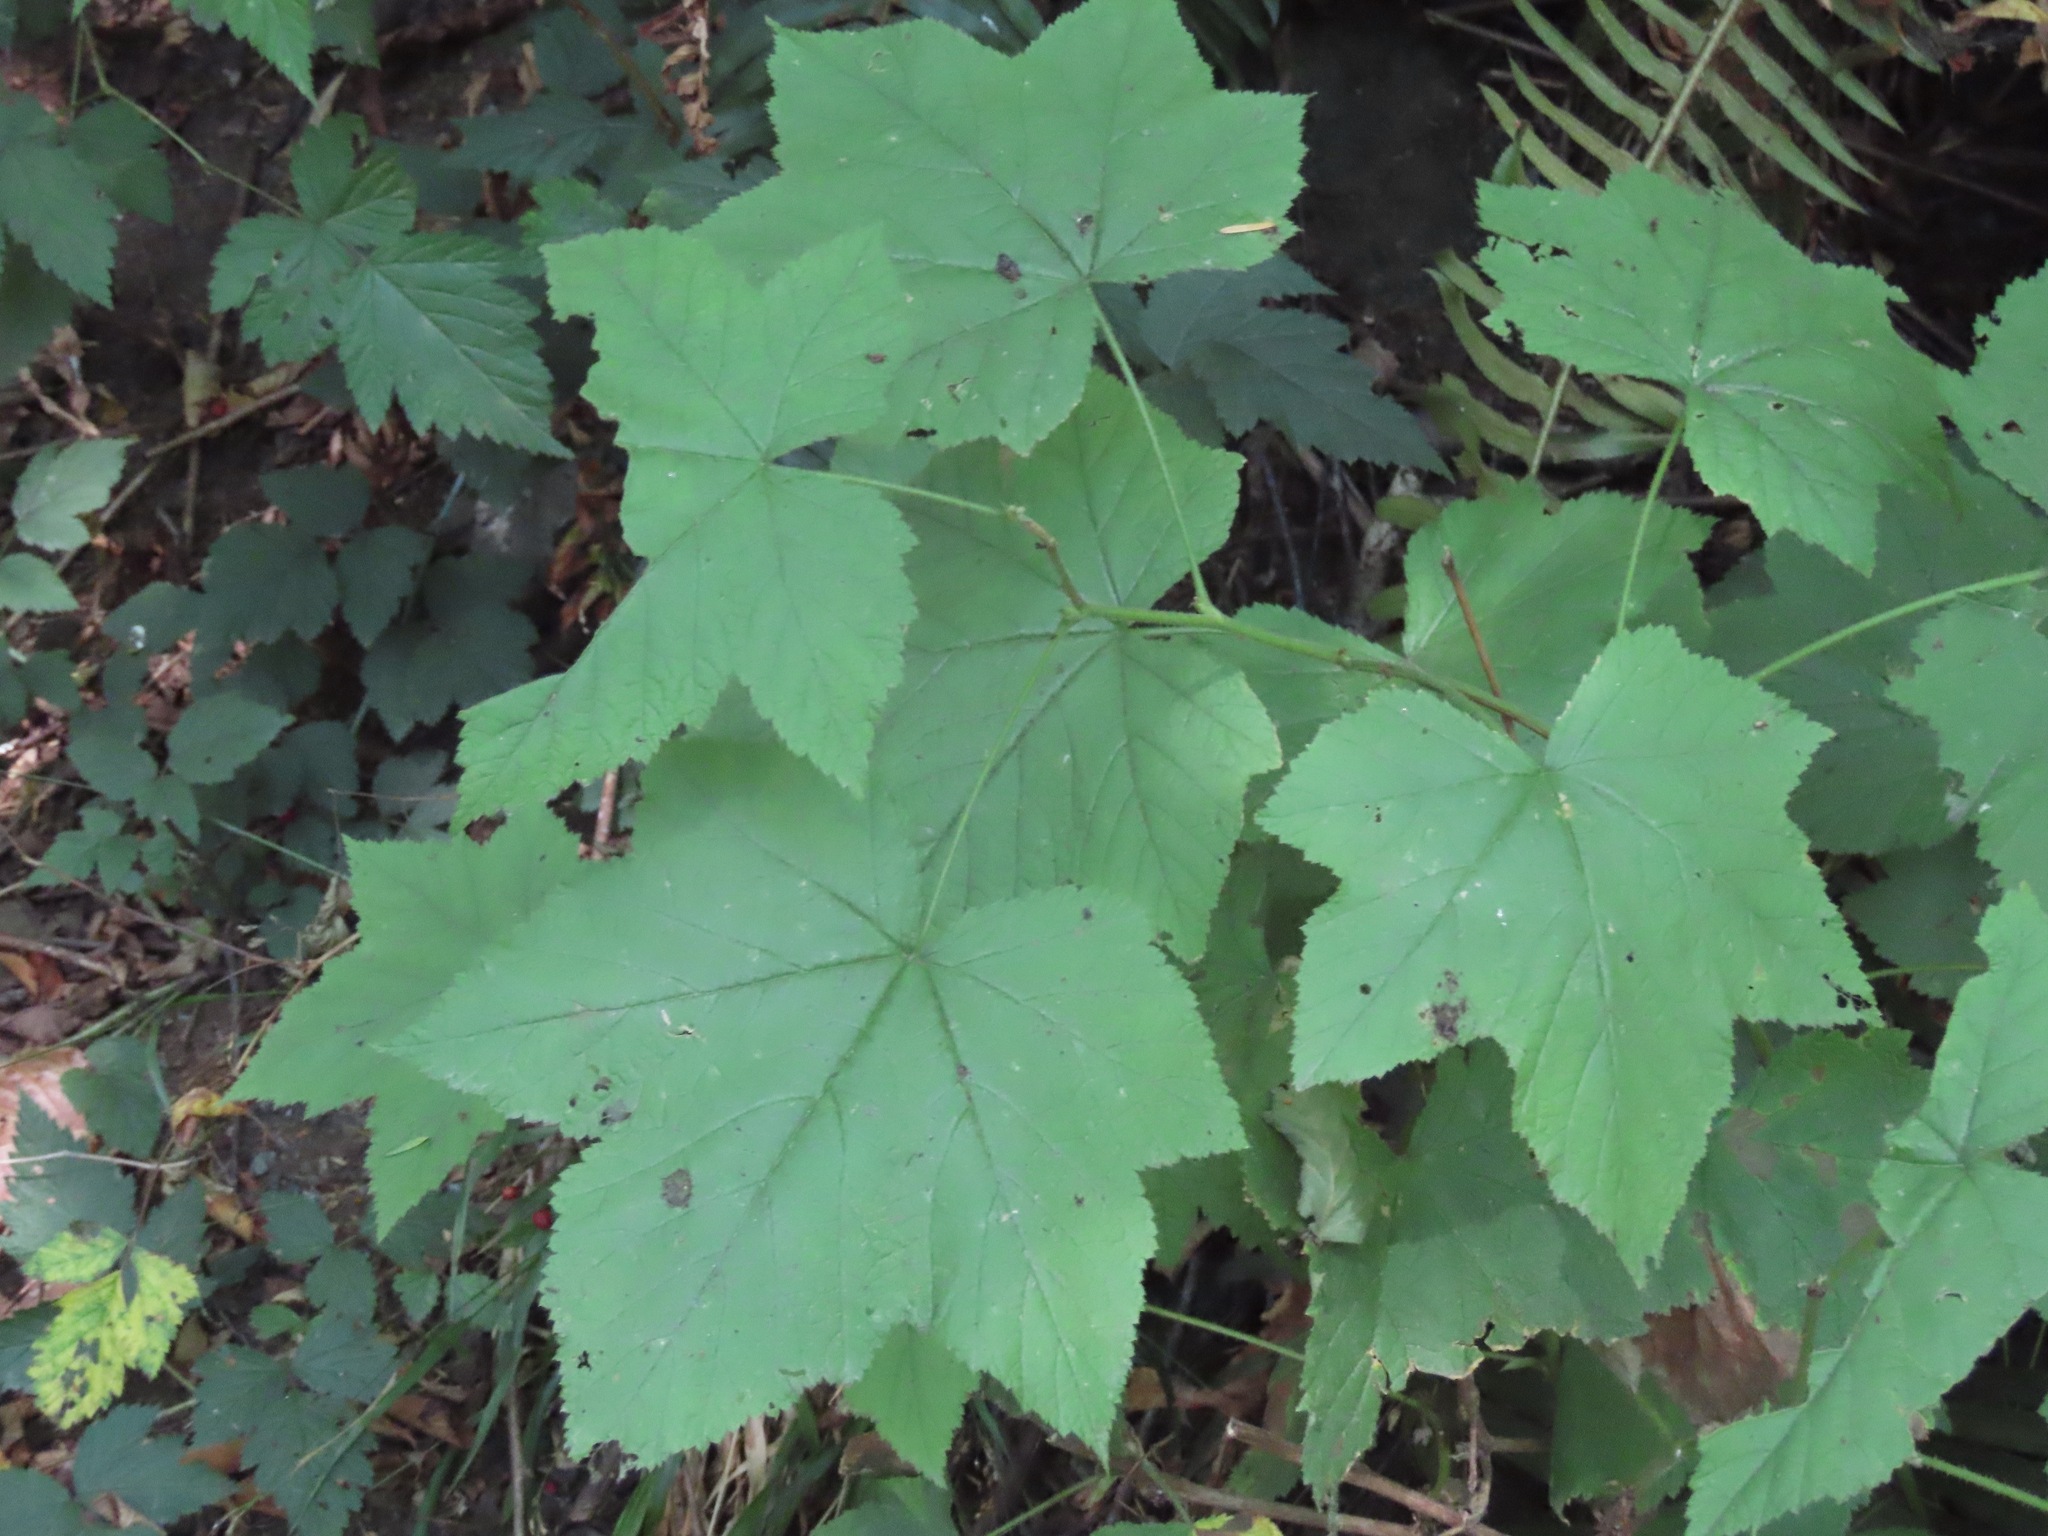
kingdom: Plantae
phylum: Tracheophyta
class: Magnoliopsida
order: Rosales
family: Rosaceae
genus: Rubus
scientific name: Rubus parviflorus
